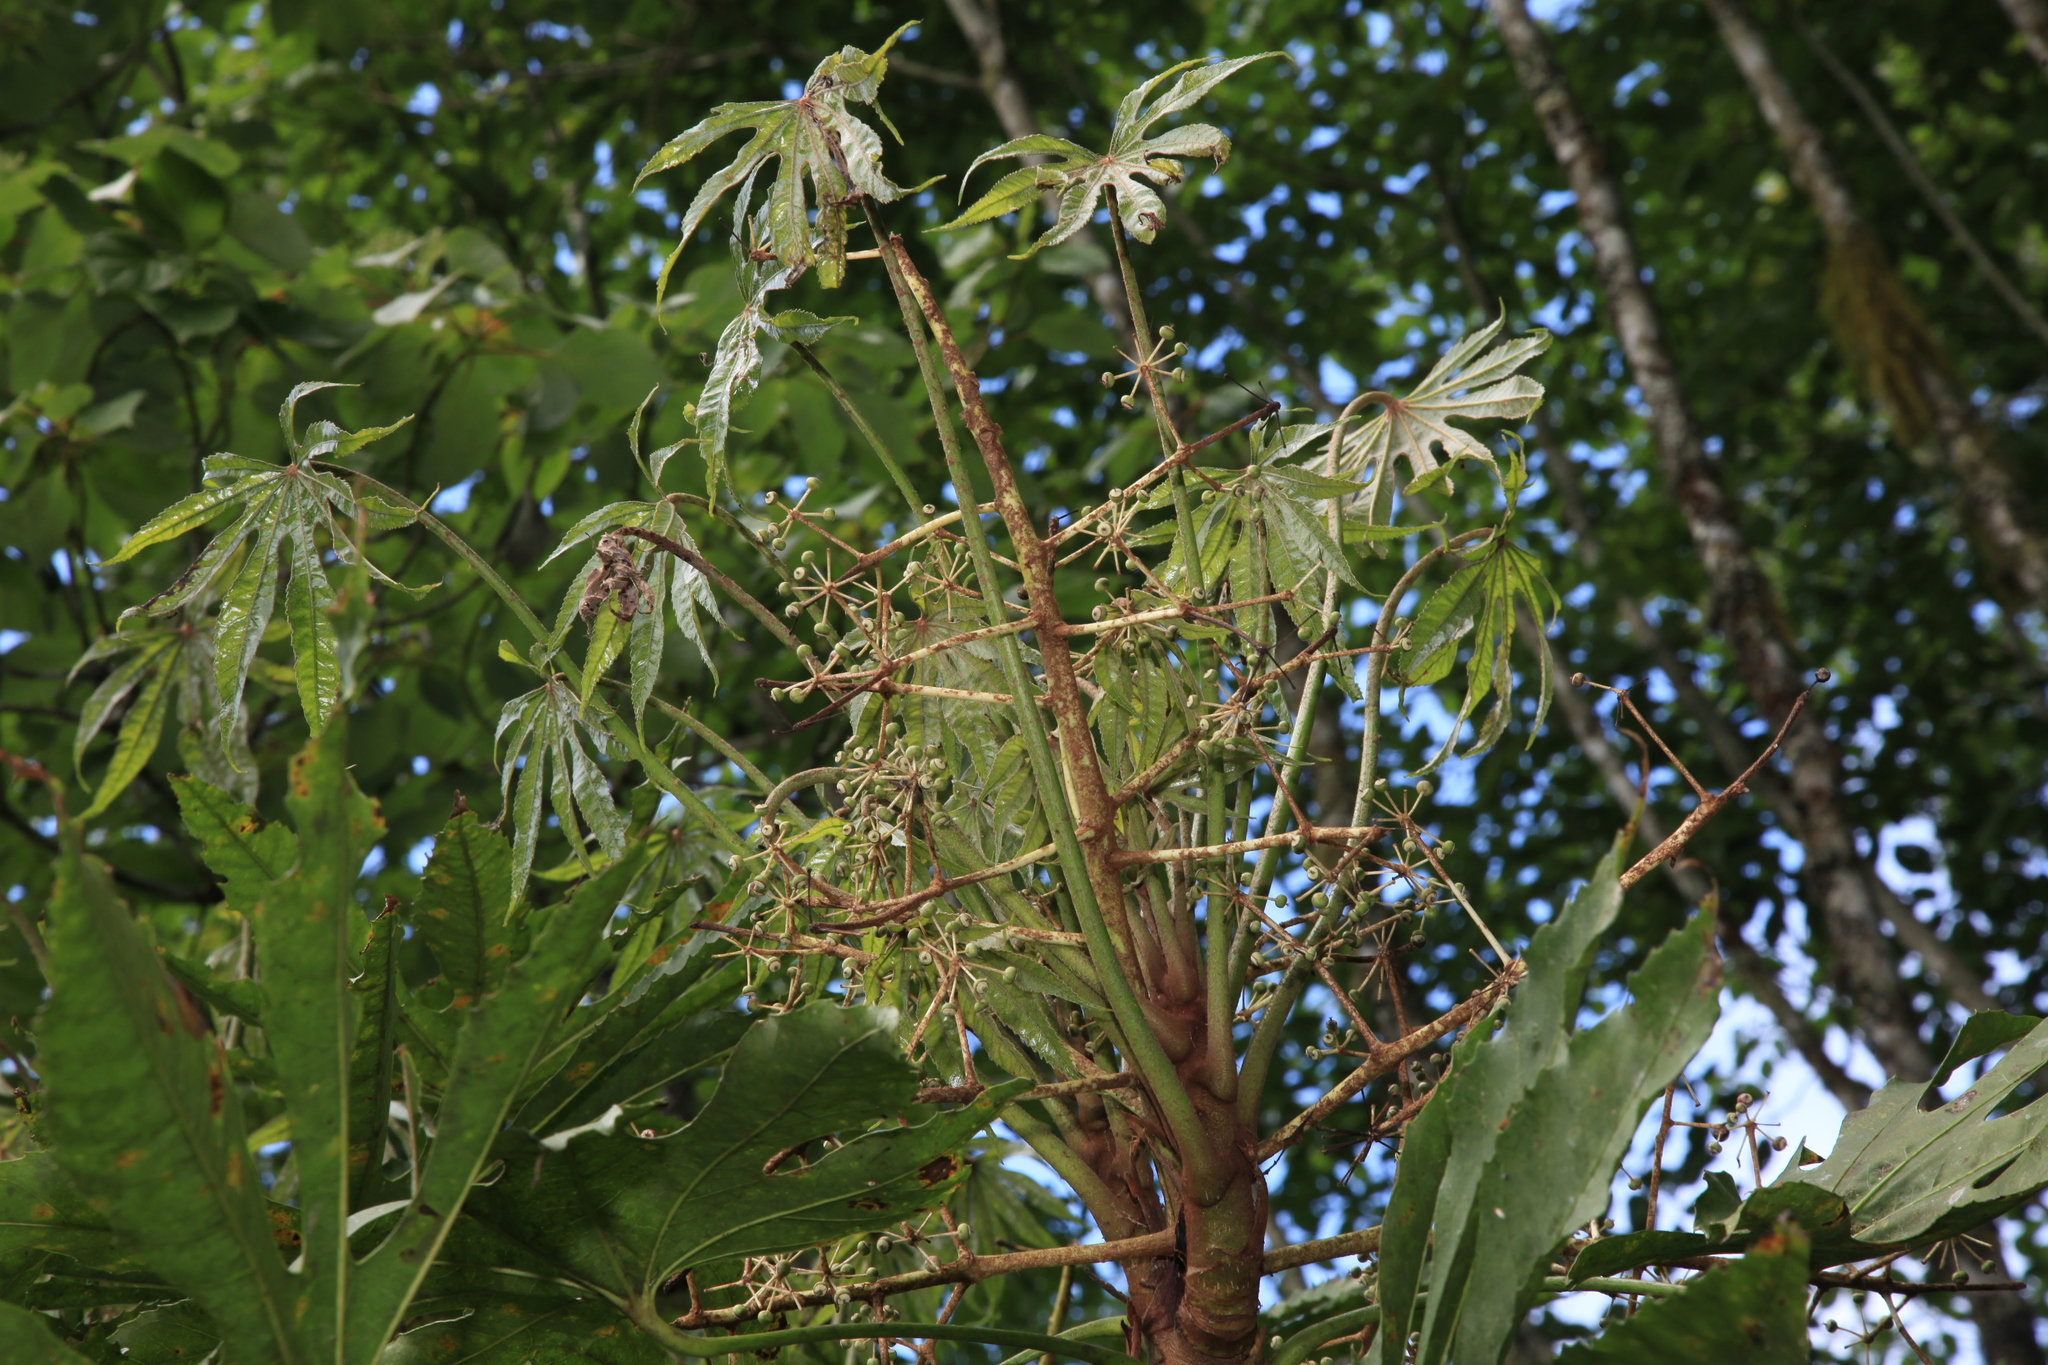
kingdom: Plantae
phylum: Tracheophyta
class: Magnoliopsida
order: Apiales
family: Araliaceae
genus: Fatsia
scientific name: Fatsia polycarpa
